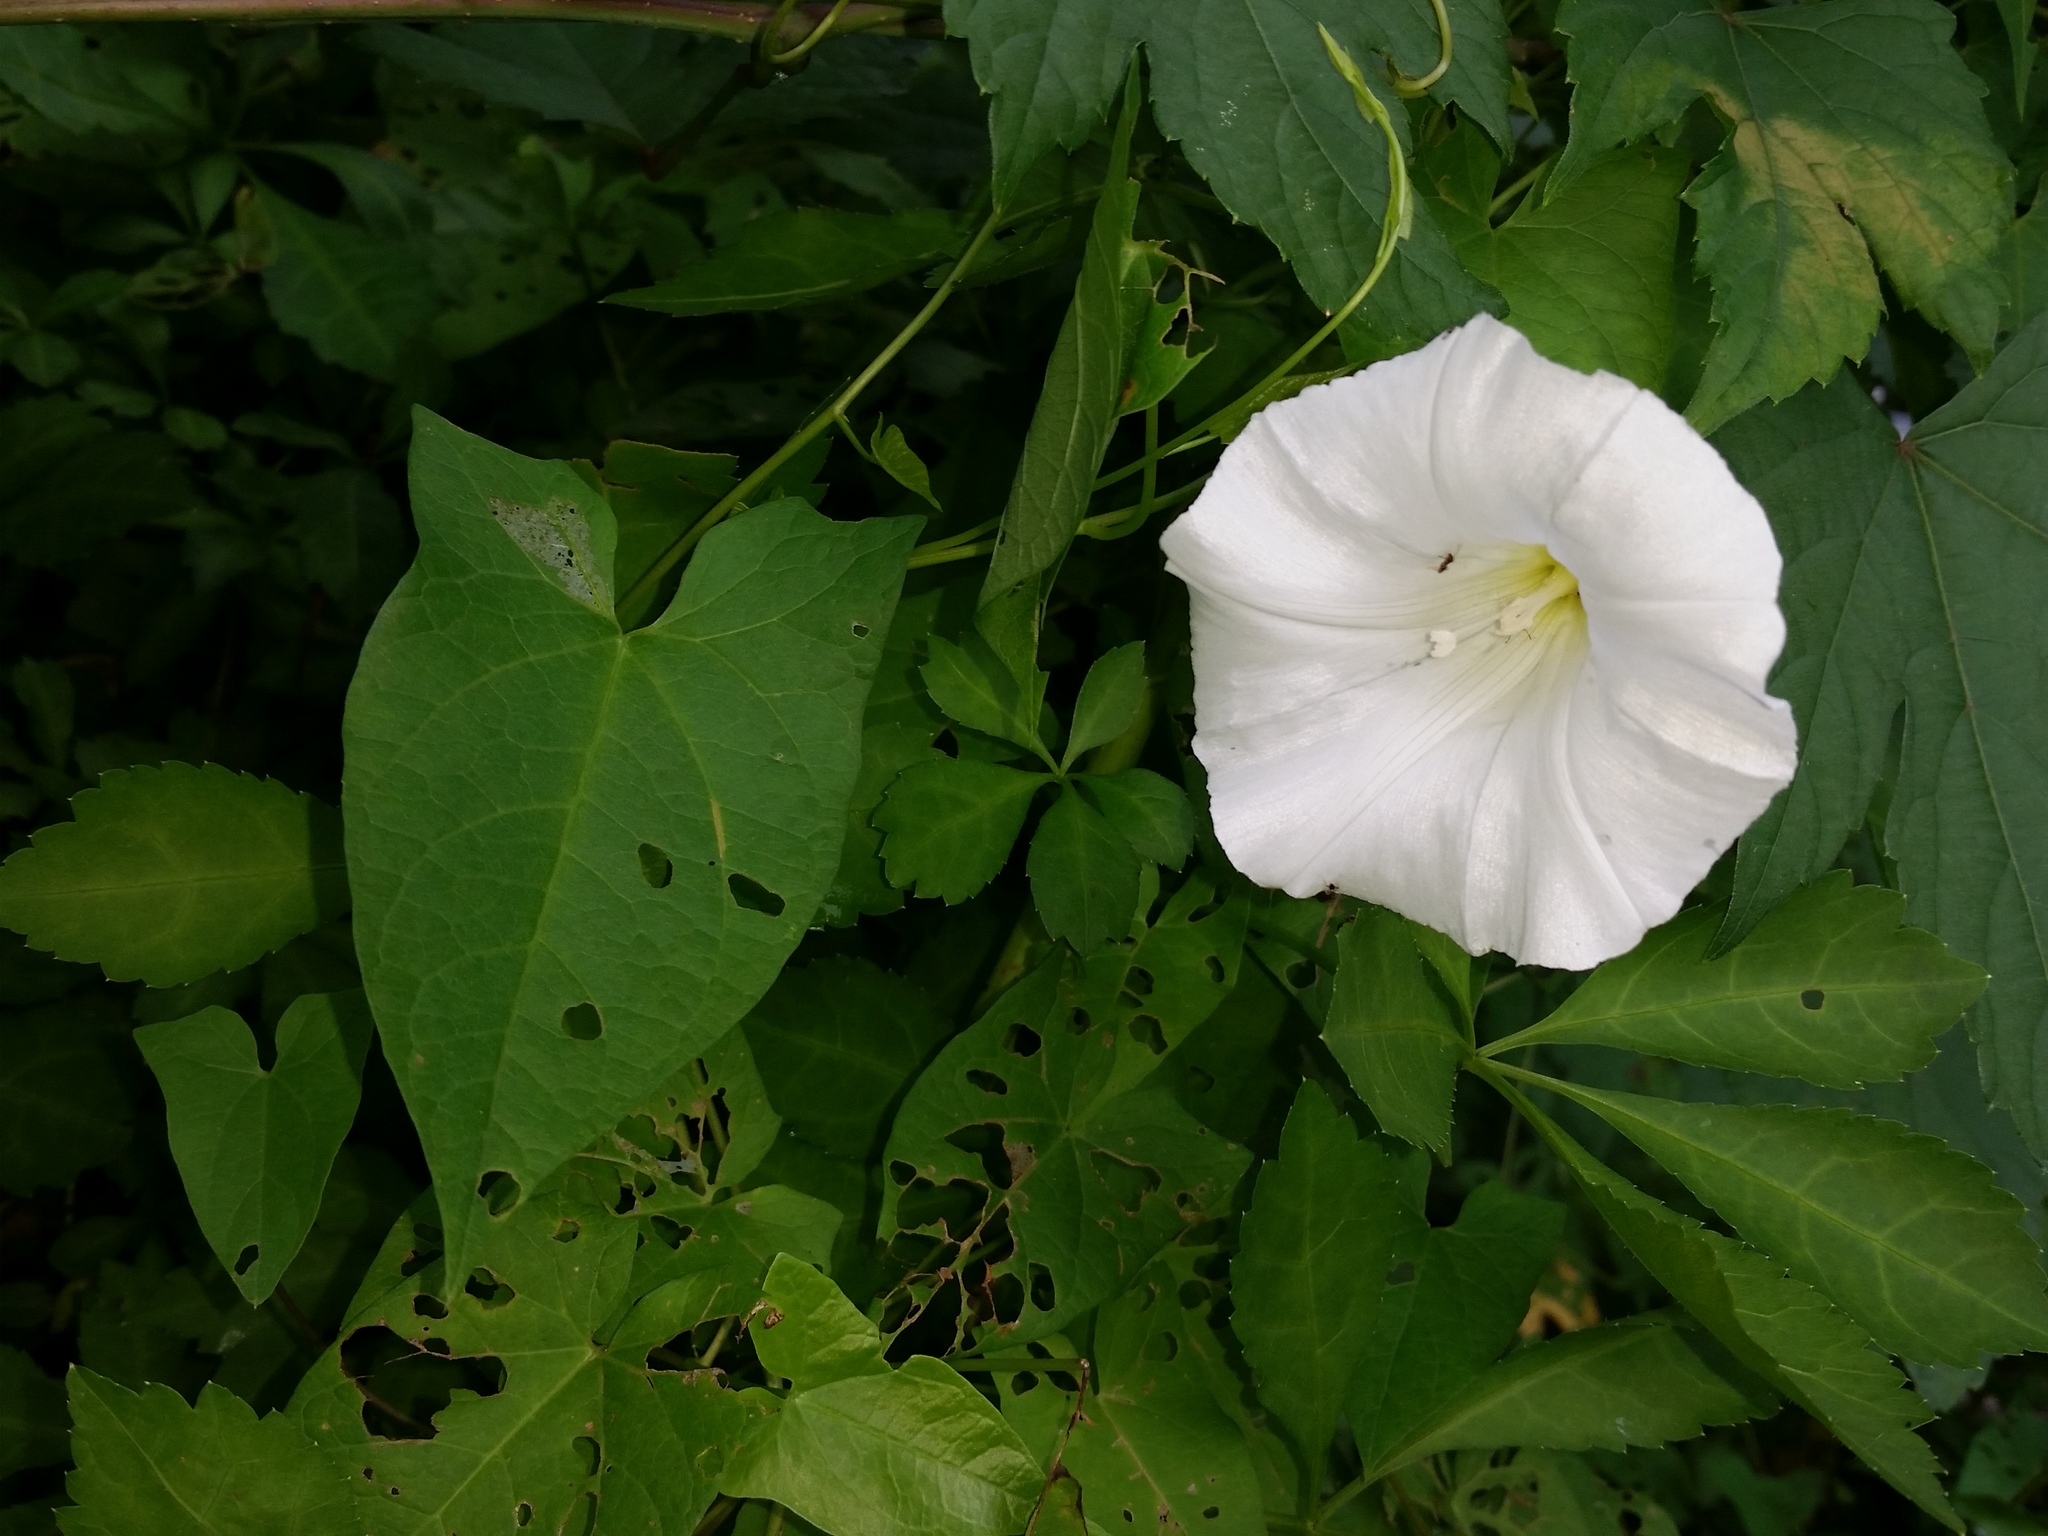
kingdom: Plantae
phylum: Tracheophyta
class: Magnoliopsida
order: Solanales
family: Convolvulaceae
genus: Calystegia
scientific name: Calystegia sepium
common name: Hedge bindweed
